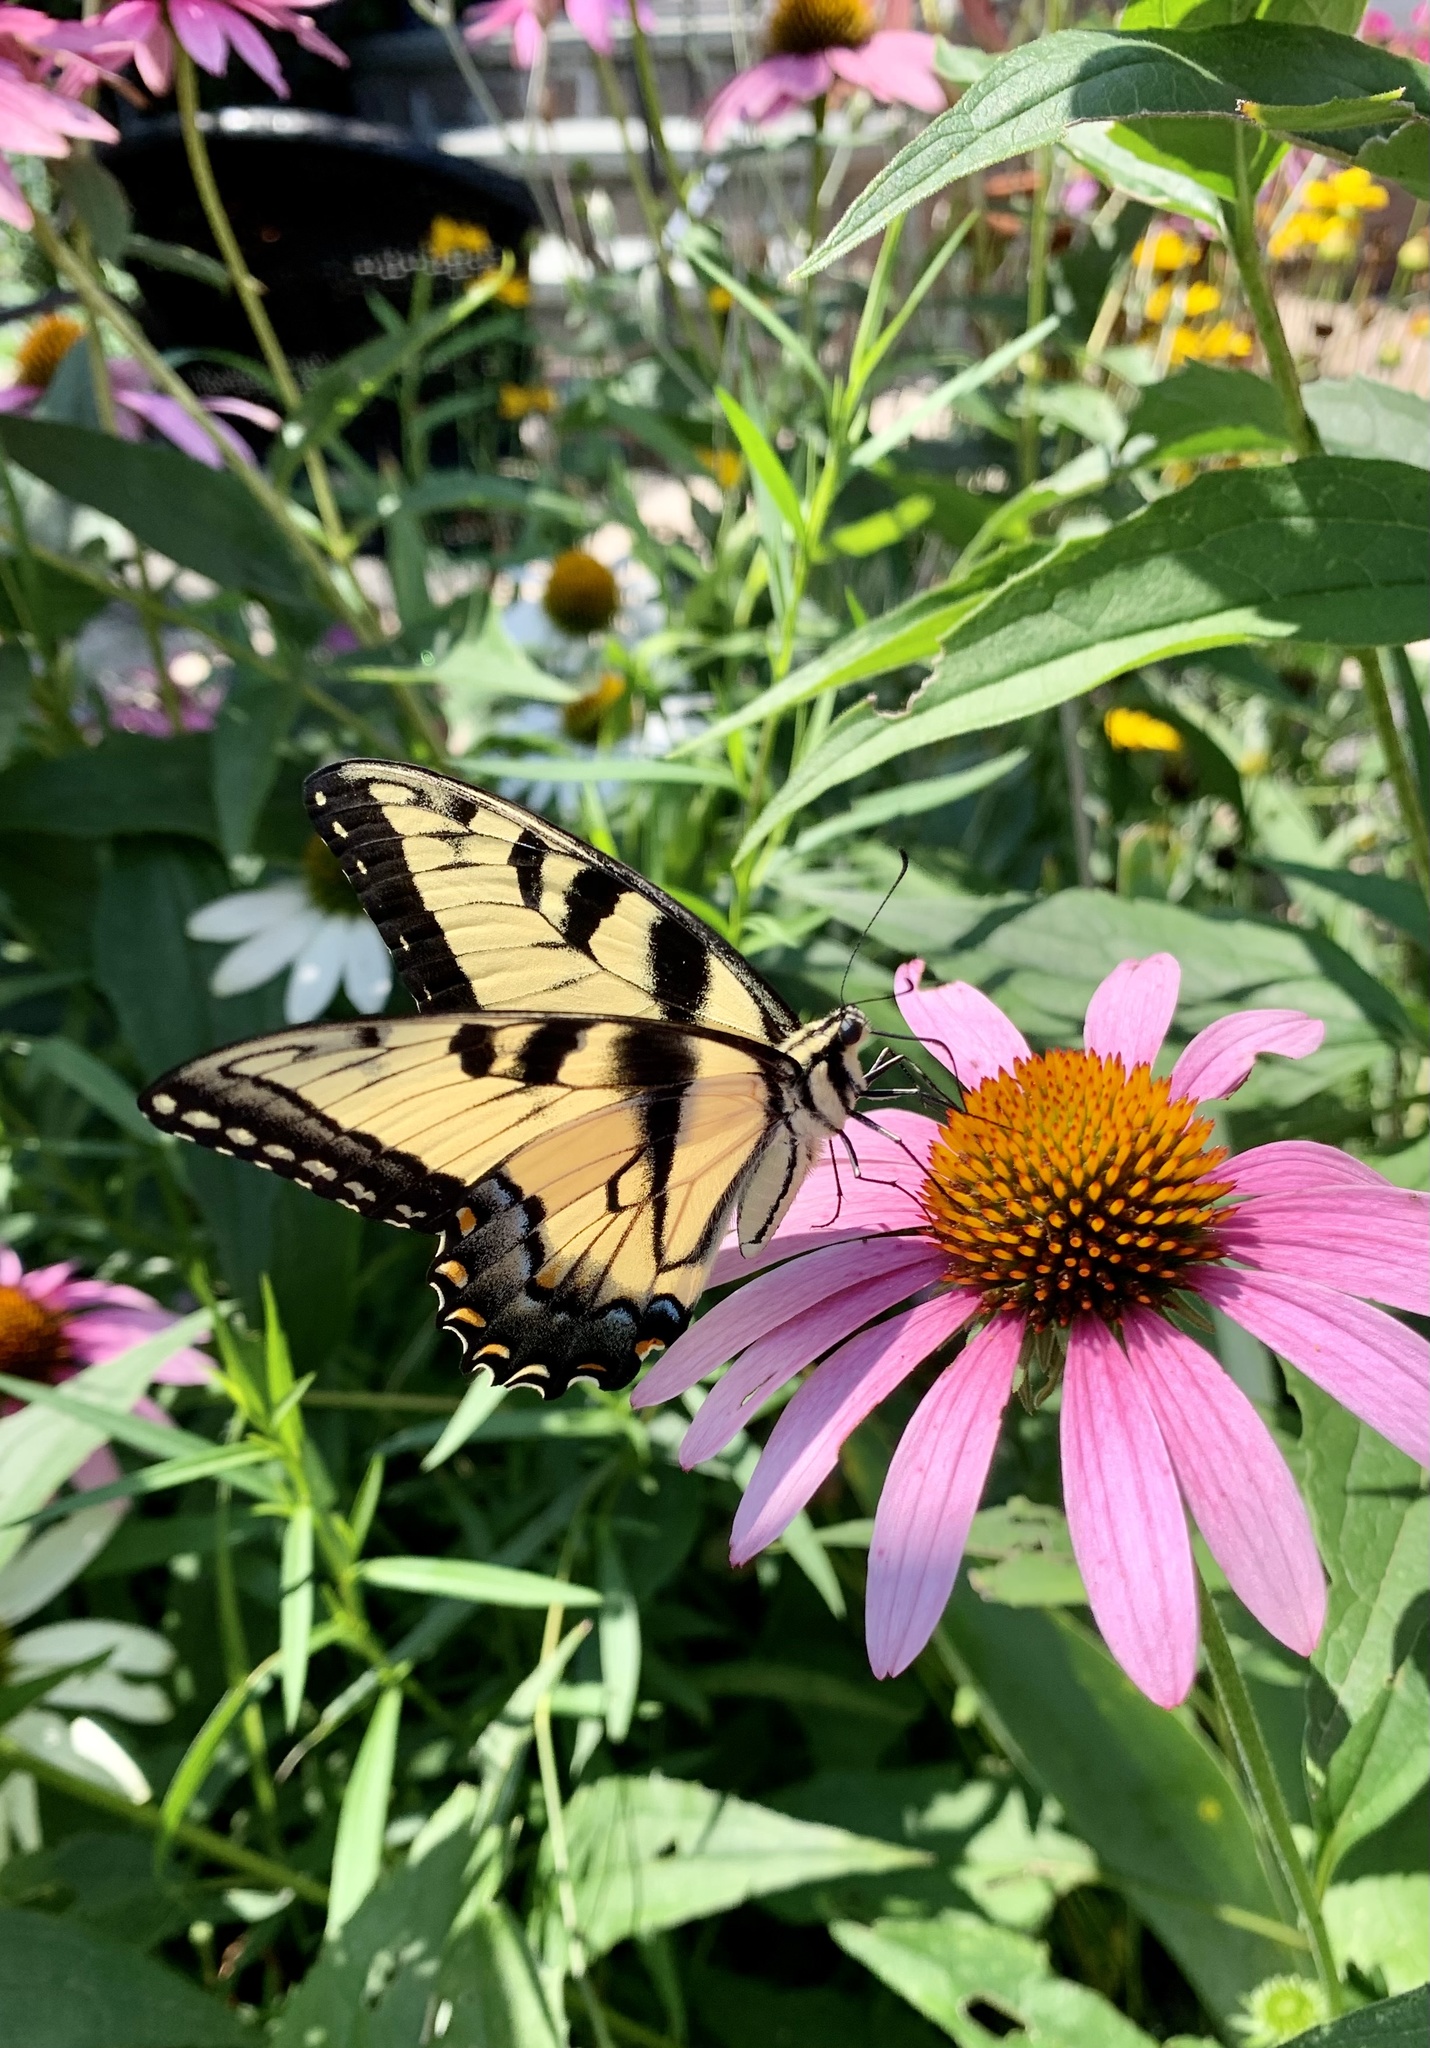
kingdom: Animalia
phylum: Arthropoda
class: Insecta
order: Lepidoptera
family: Papilionidae
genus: Papilio
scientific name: Papilio glaucus
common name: Tiger swallowtail
